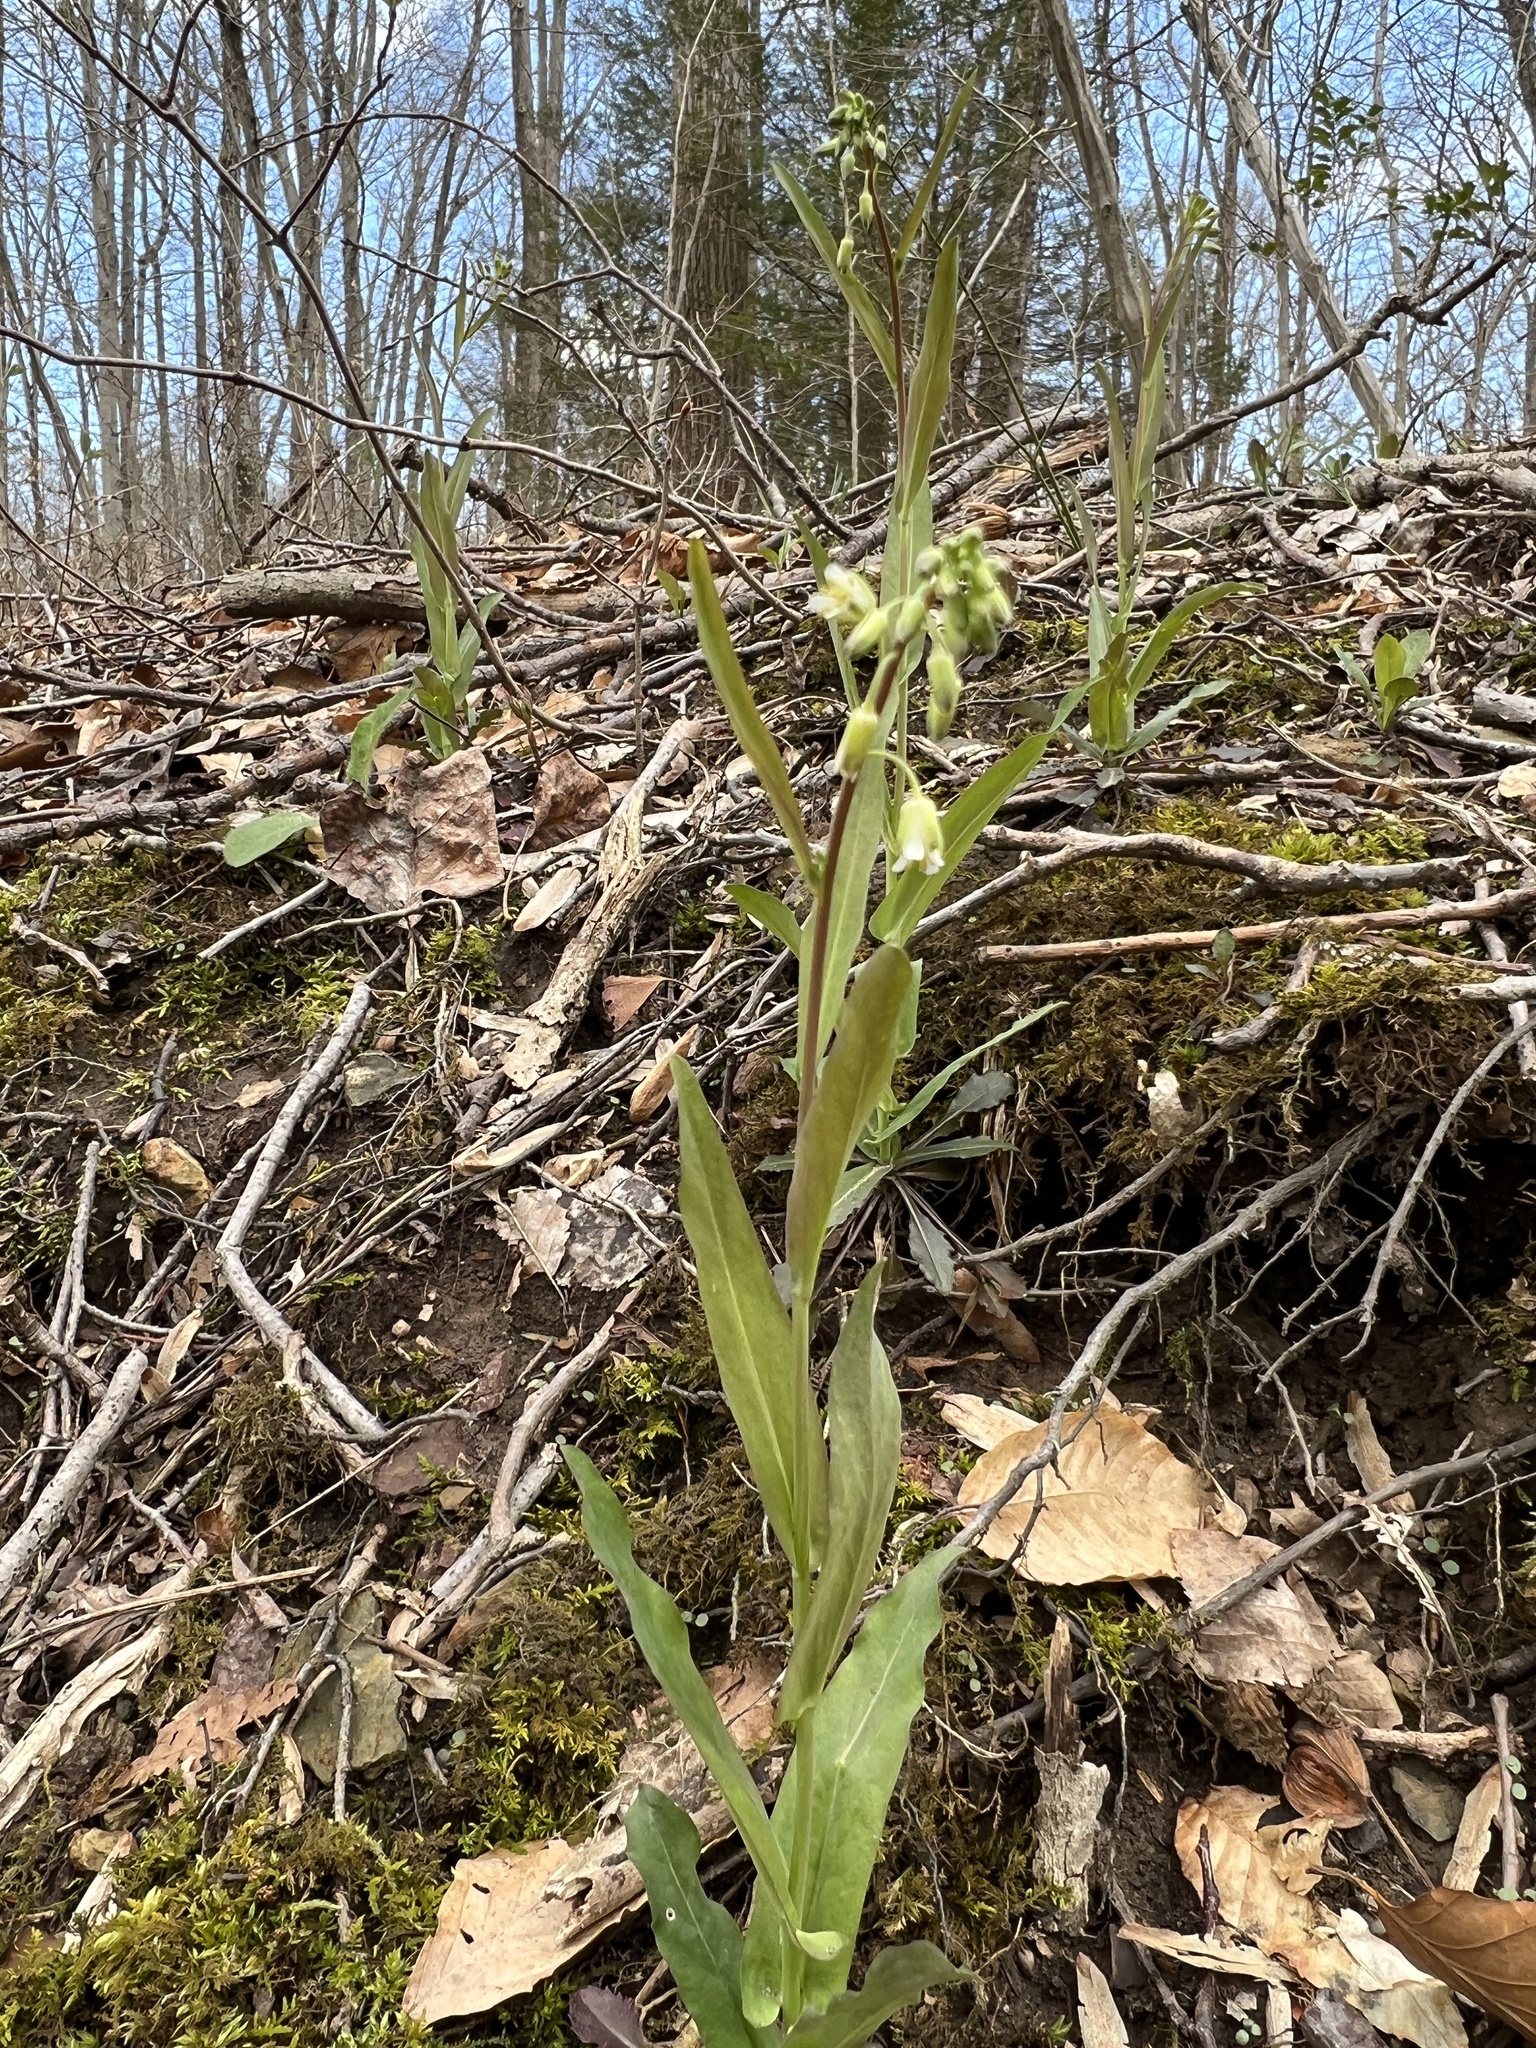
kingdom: Plantae
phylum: Tracheophyta
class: Magnoliopsida
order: Brassicales
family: Brassicaceae
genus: Borodinia
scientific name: Borodinia laevigata
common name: Smooth rockcress
